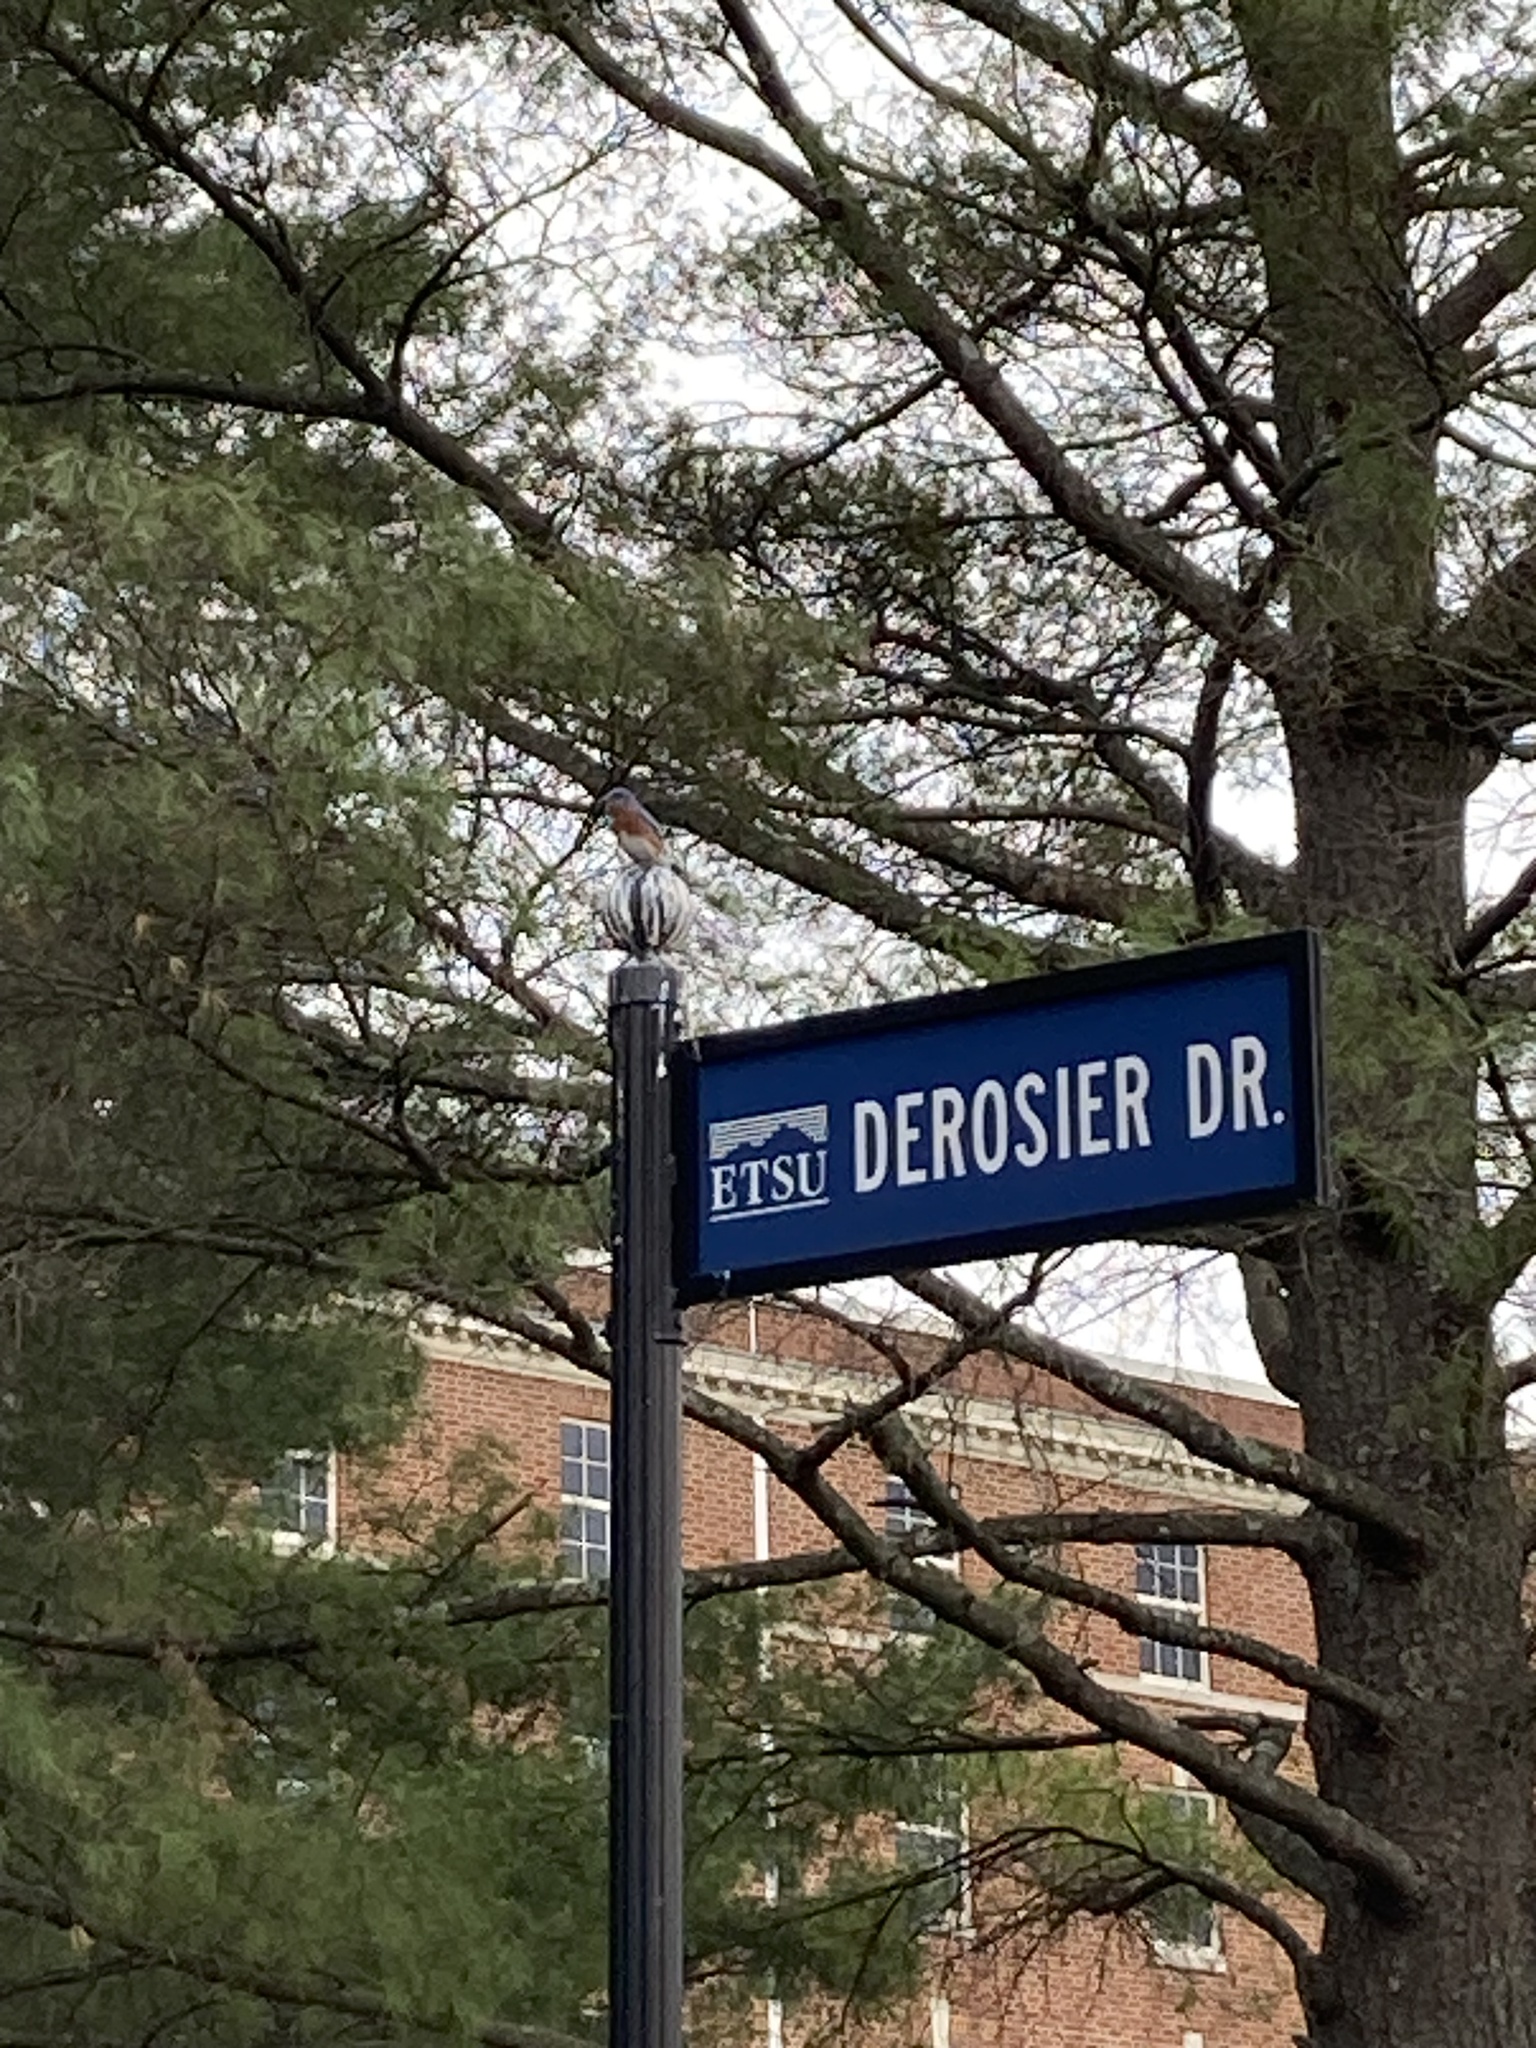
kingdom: Animalia
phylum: Chordata
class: Aves
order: Passeriformes
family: Turdidae
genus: Sialia
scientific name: Sialia sialis
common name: Eastern bluebird
